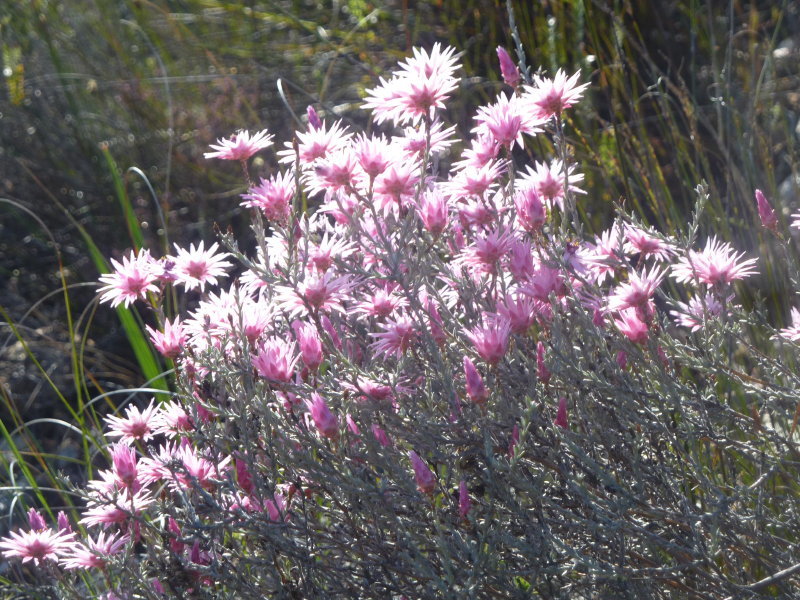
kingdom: Plantae
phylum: Tracheophyta
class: Magnoliopsida
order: Asterales
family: Asteraceae
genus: Syncarpha
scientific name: Syncarpha canescens
